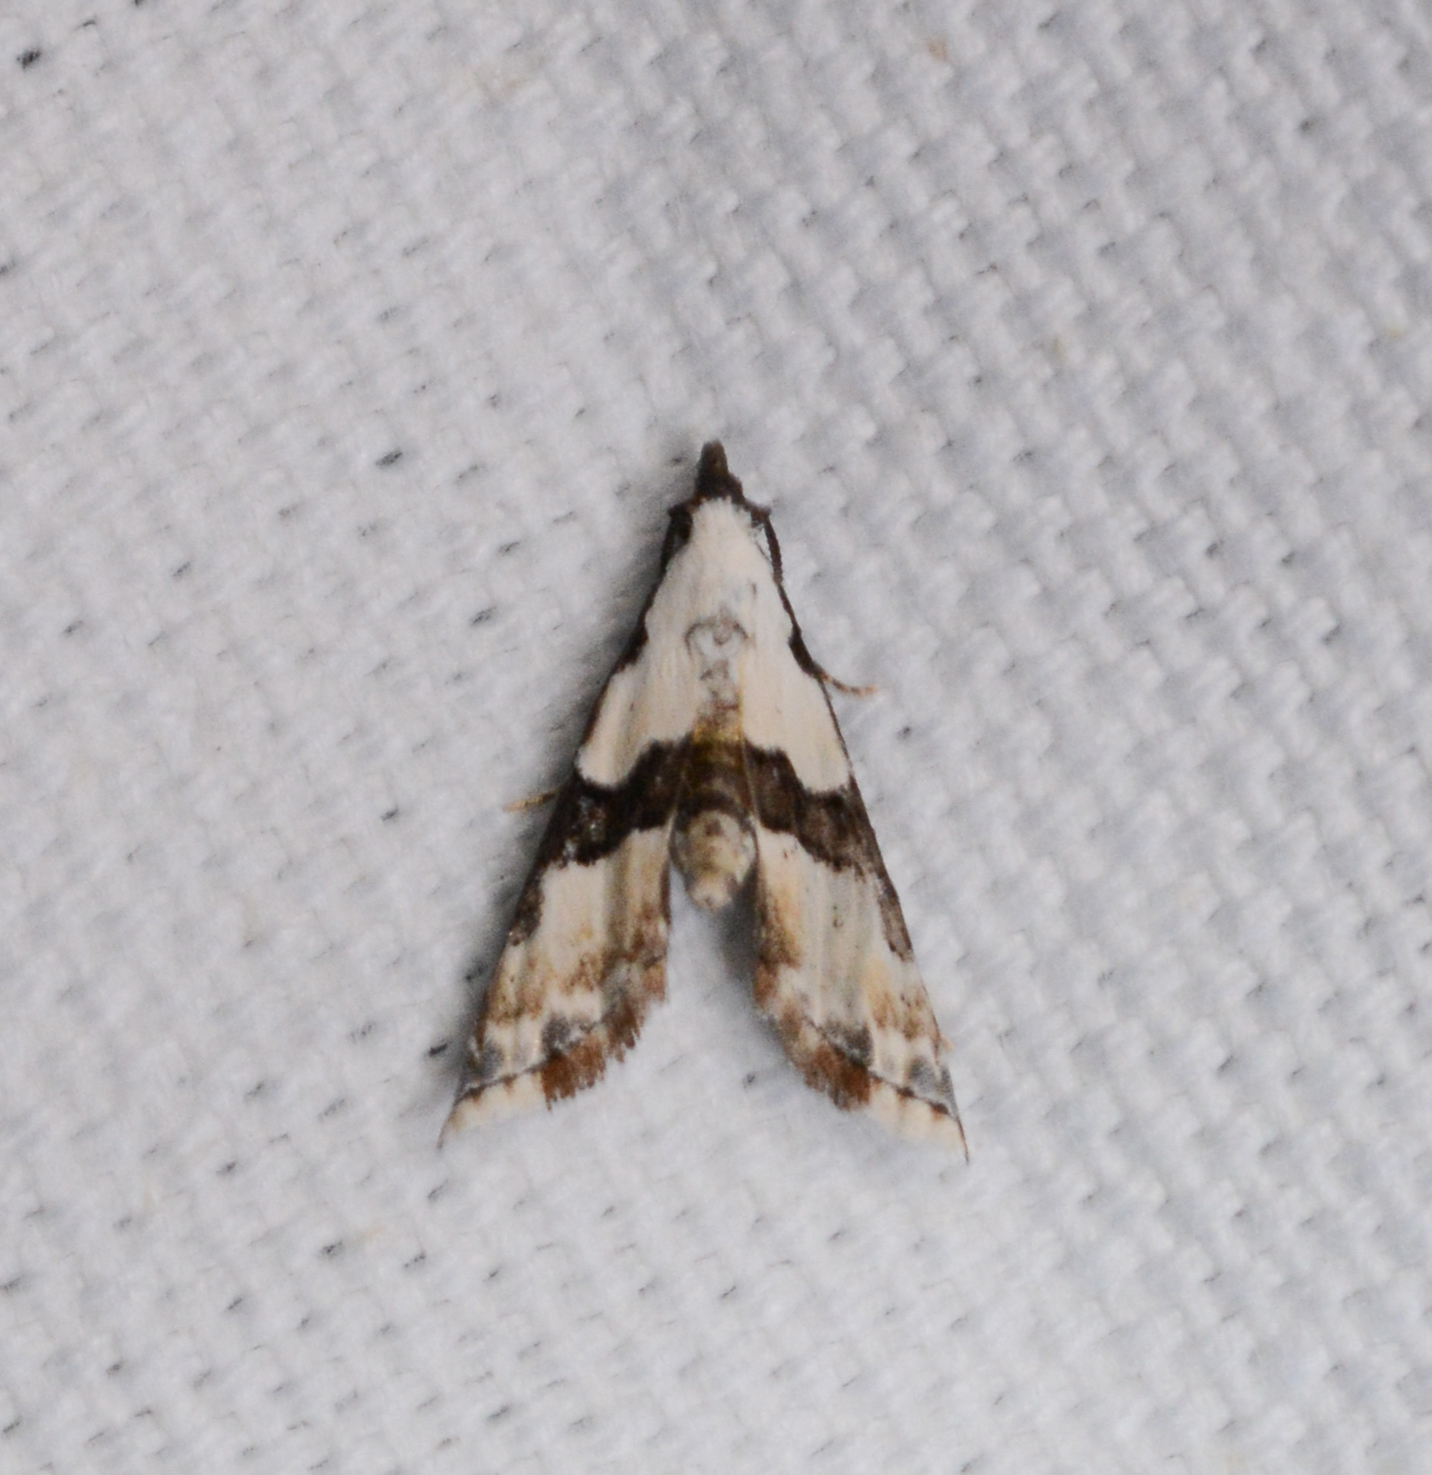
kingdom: Animalia
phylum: Arthropoda
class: Insecta
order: Lepidoptera
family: Noctuidae
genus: Nigetia
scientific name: Nigetia formosalis
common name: Thin-winged owlet
